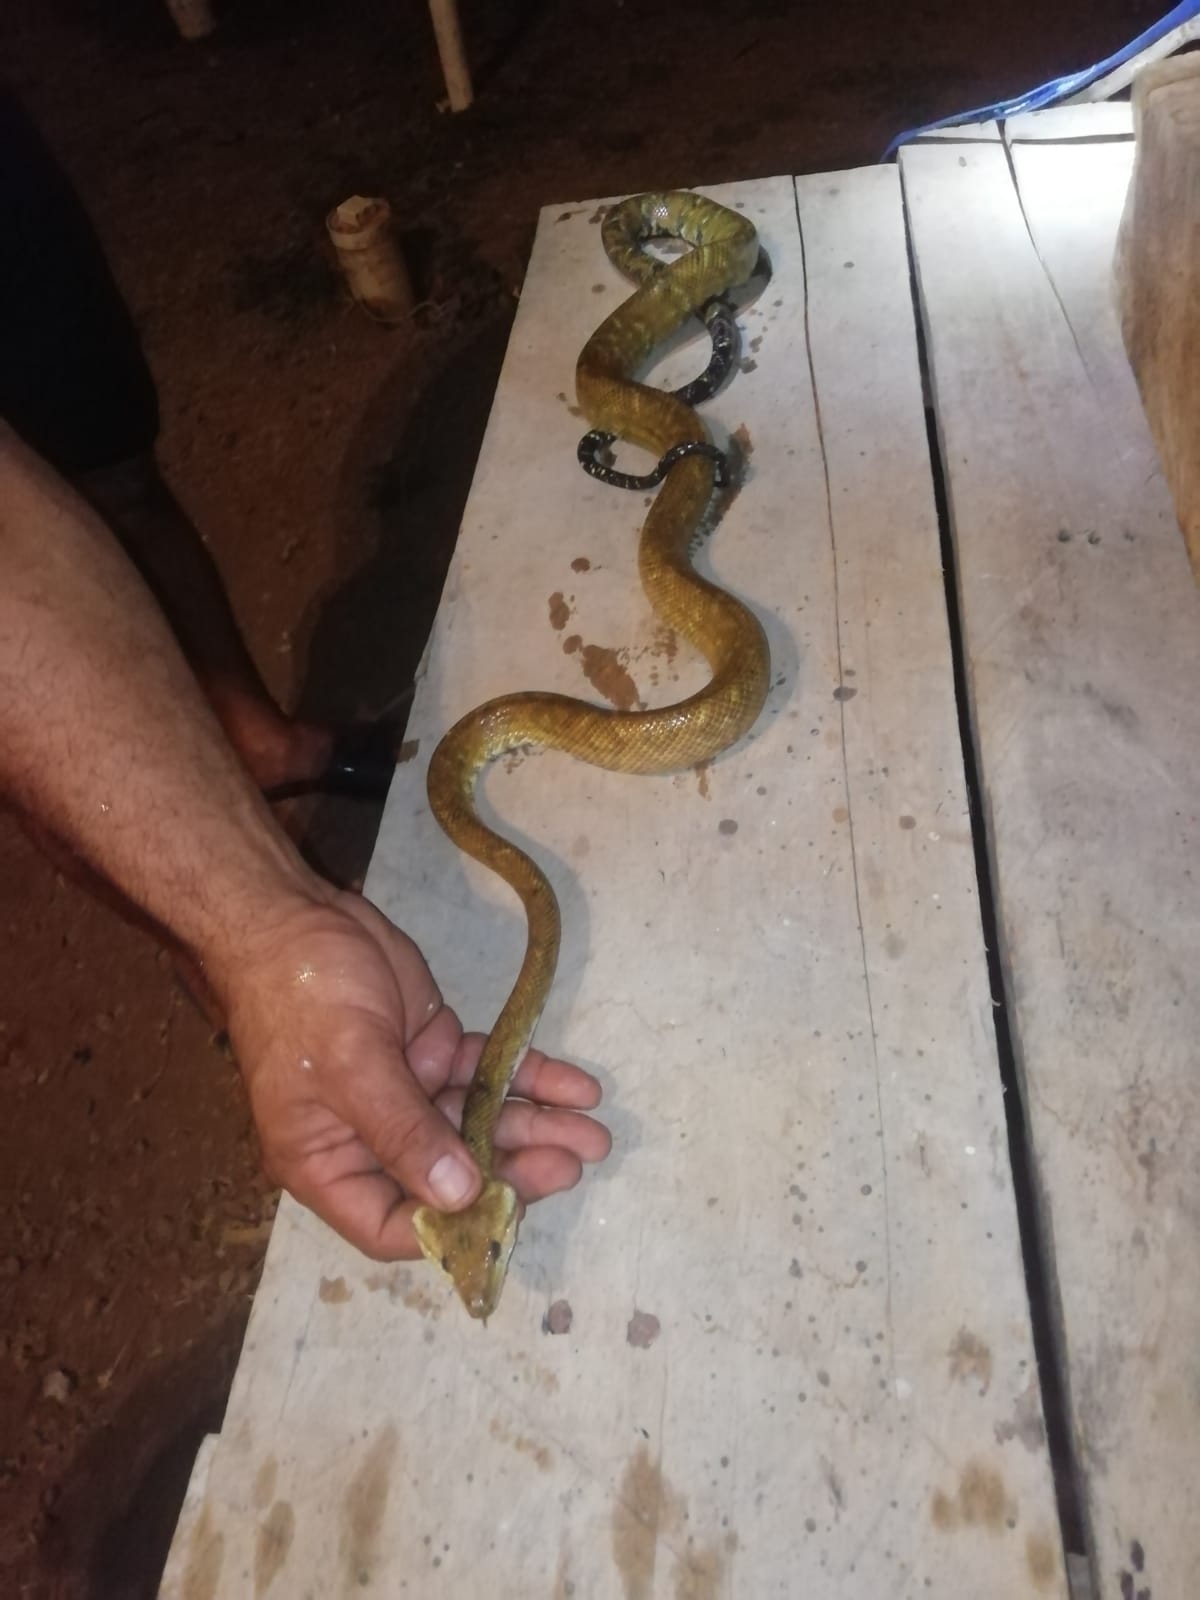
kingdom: Animalia
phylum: Chordata
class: Squamata
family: Boidae
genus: Corallus
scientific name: Corallus ruschenbergerii
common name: Dormilona
